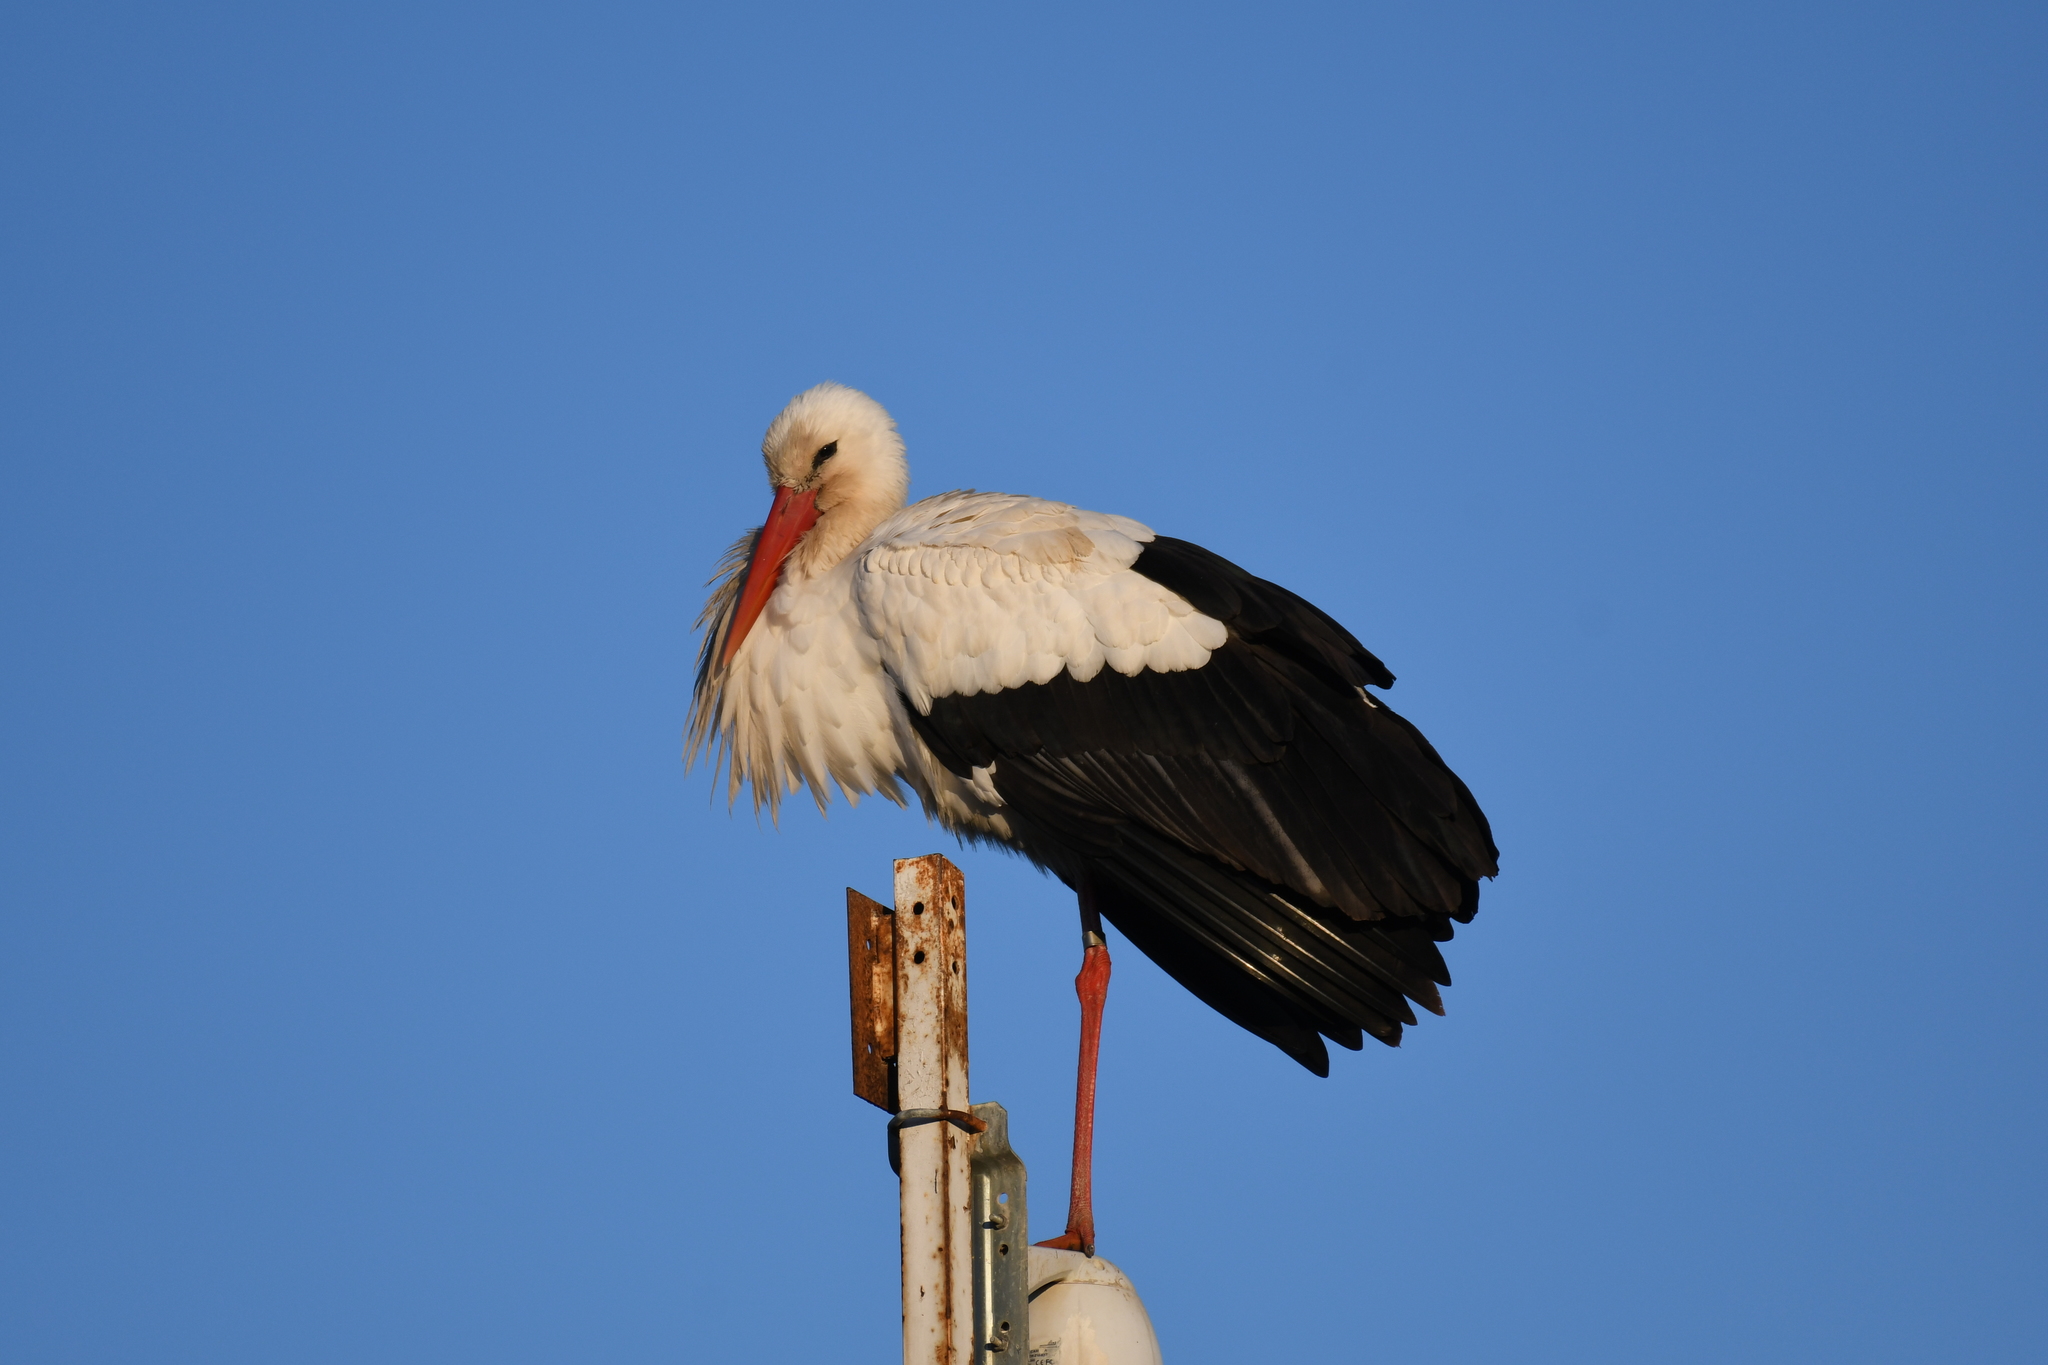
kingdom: Animalia
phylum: Chordata
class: Aves
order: Ciconiiformes
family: Ciconiidae
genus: Ciconia
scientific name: Ciconia ciconia
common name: White stork
